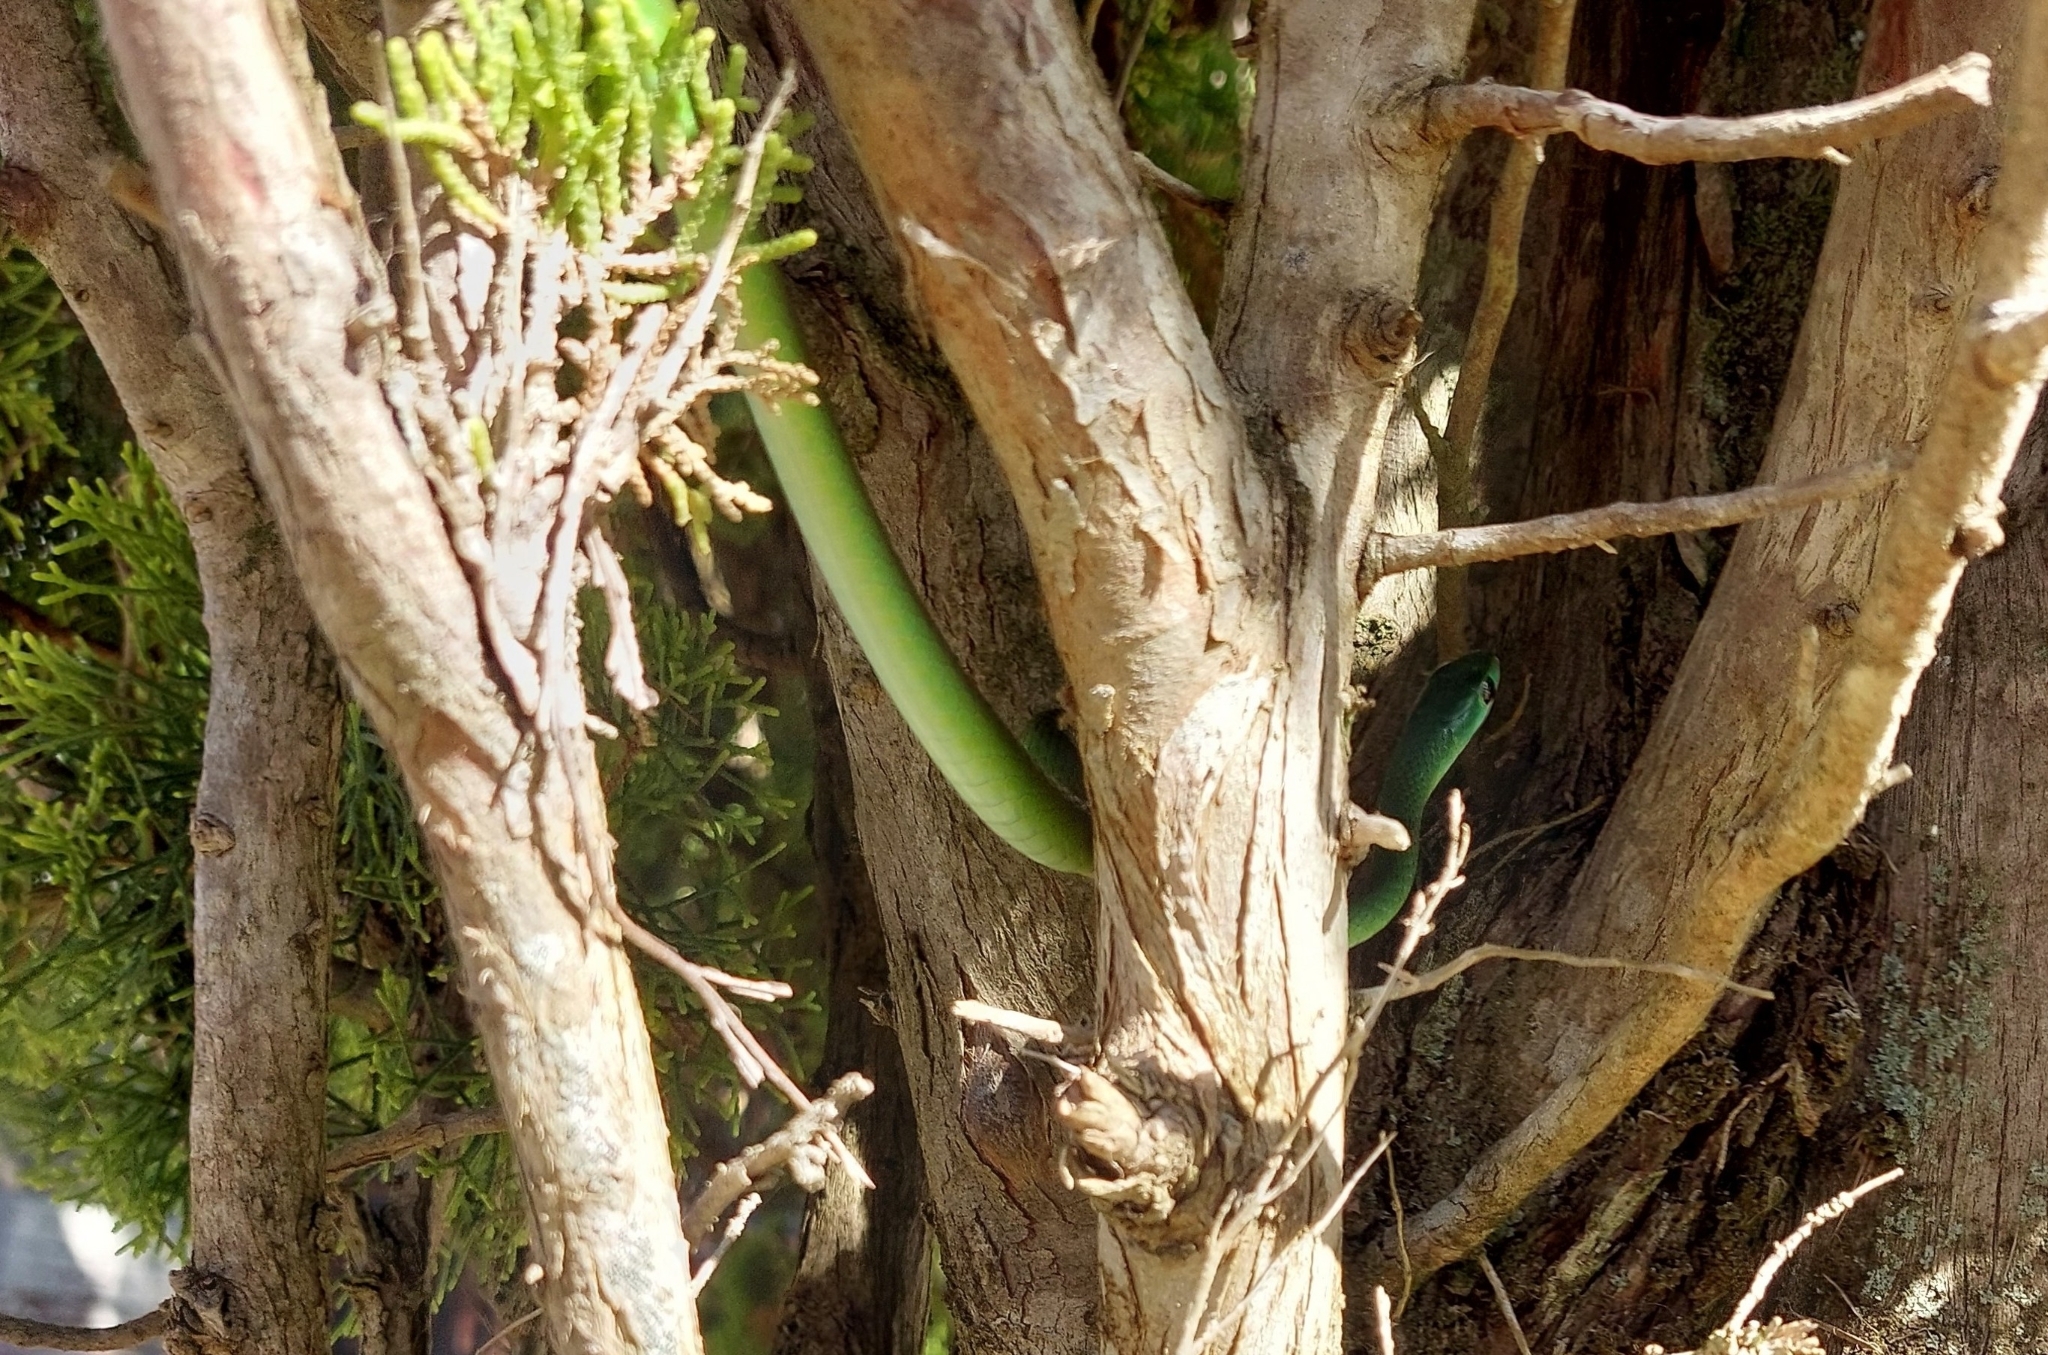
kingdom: Animalia
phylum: Chordata
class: Squamata
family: Colubridae
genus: Philothamnus
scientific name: Philothamnus occidentalis
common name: Western natal green snake
